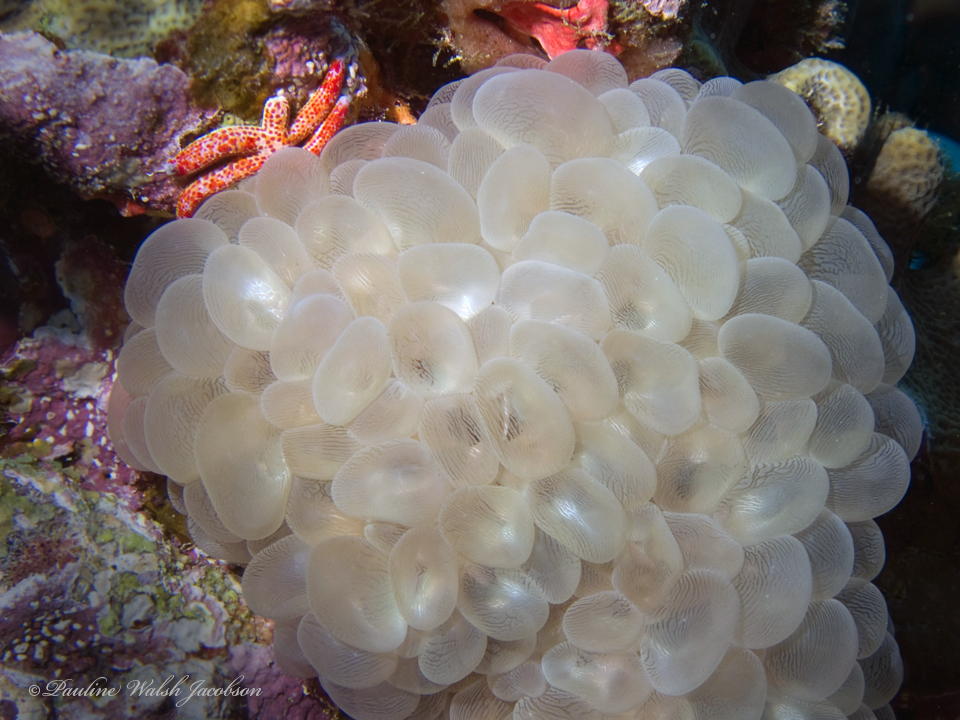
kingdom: Animalia
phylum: Cnidaria
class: Anthozoa
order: Scleractinia
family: Plerogyridae
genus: Plerogyra
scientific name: Plerogyra sinuosa
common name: Bubble coral
